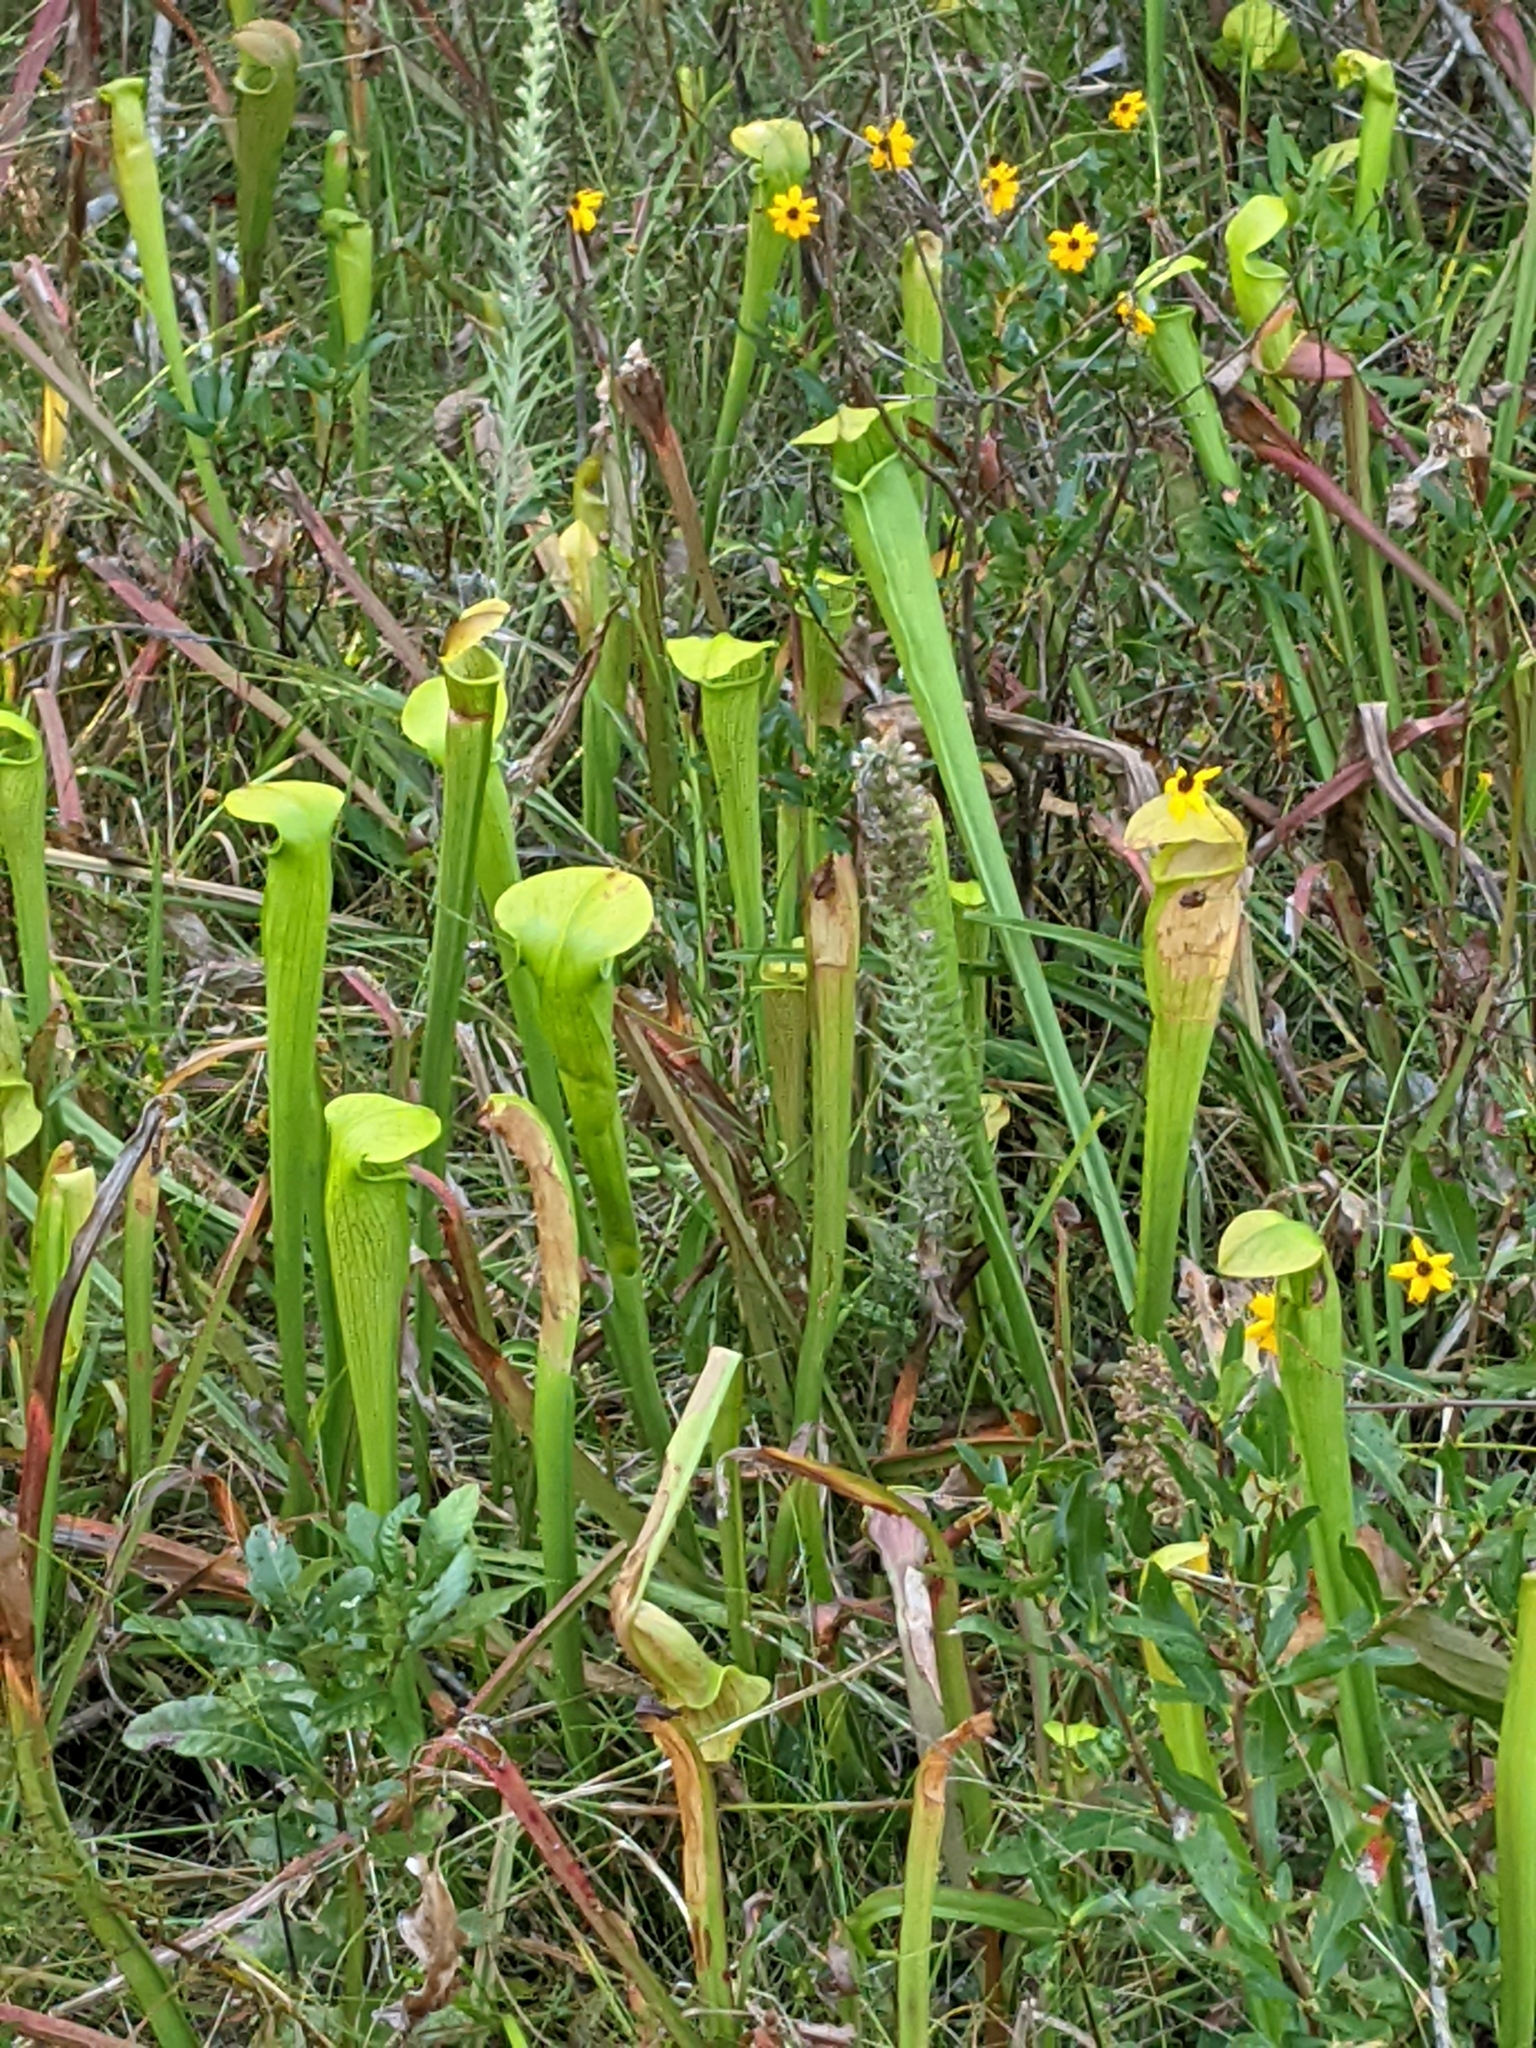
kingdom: Plantae
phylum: Tracheophyta
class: Magnoliopsida
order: Ericales
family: Sarraceniaceae
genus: Sarracenia
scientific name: Sarracenia alata
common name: Yellow trumpets
